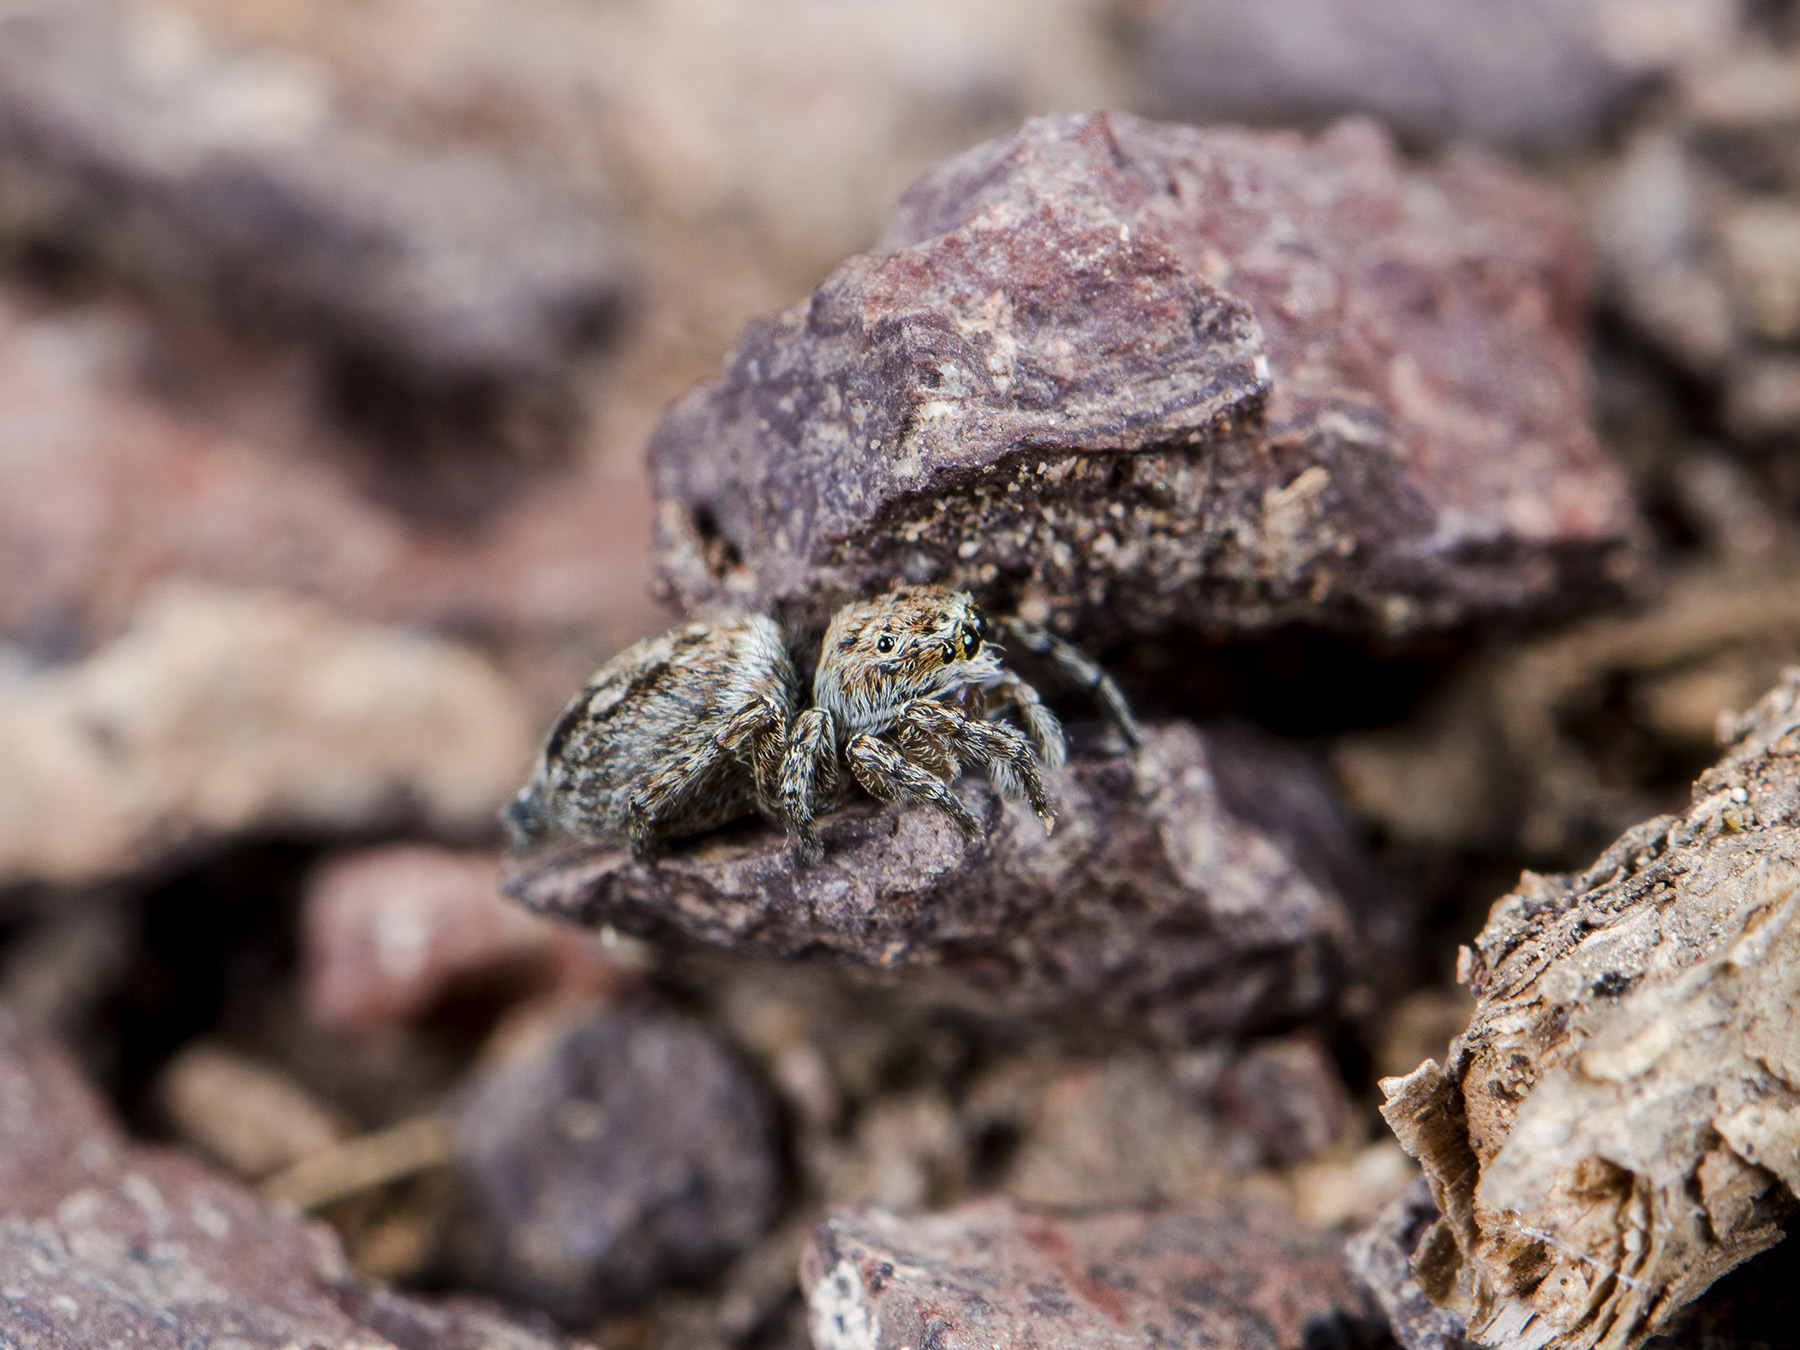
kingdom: Animalia
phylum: Arthropoda
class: Arachnida
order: Araneae
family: Salticidae
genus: Attulus
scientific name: Attulus mirandus
